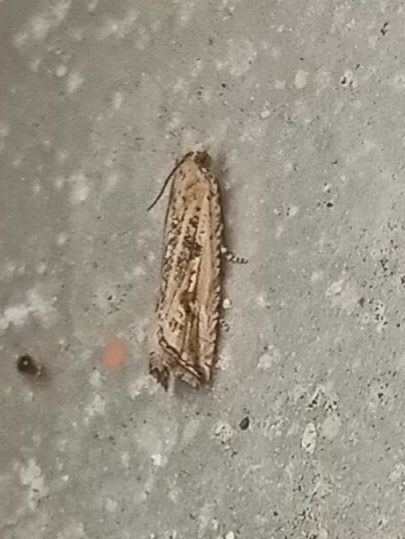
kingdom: Animalia
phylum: Arthropoda
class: Insecta
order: Lepidoptera
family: Tortricidae
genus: Bactra
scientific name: Bactra verutana
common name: Javelin moth
